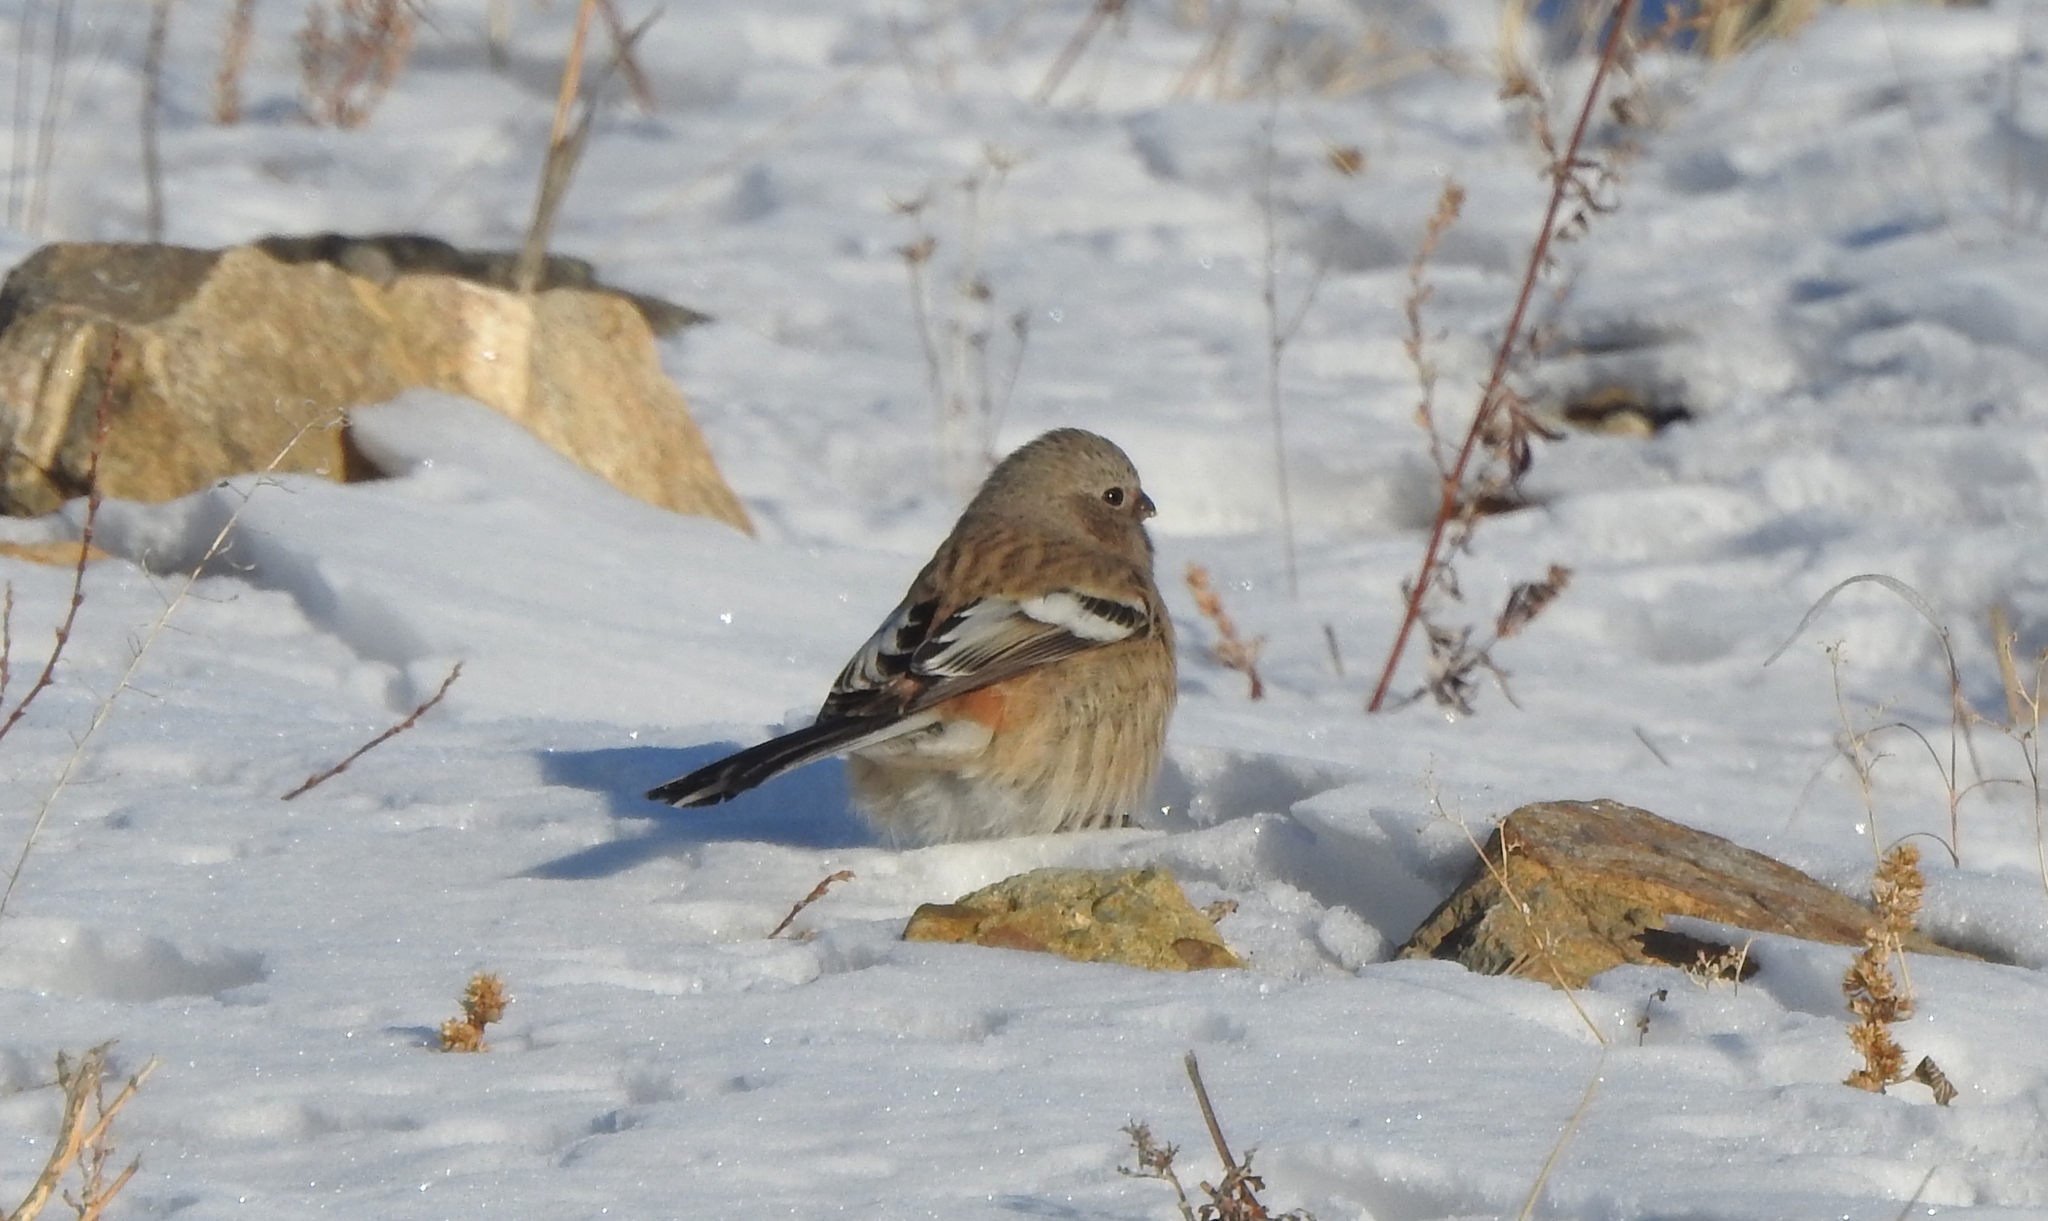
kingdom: Animalia
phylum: Chordata
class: Aves
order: Passeriformes
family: Fringillidae
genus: Carpodacus
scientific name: Carpodacus sibiricus
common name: Long-tailed rosefinch
